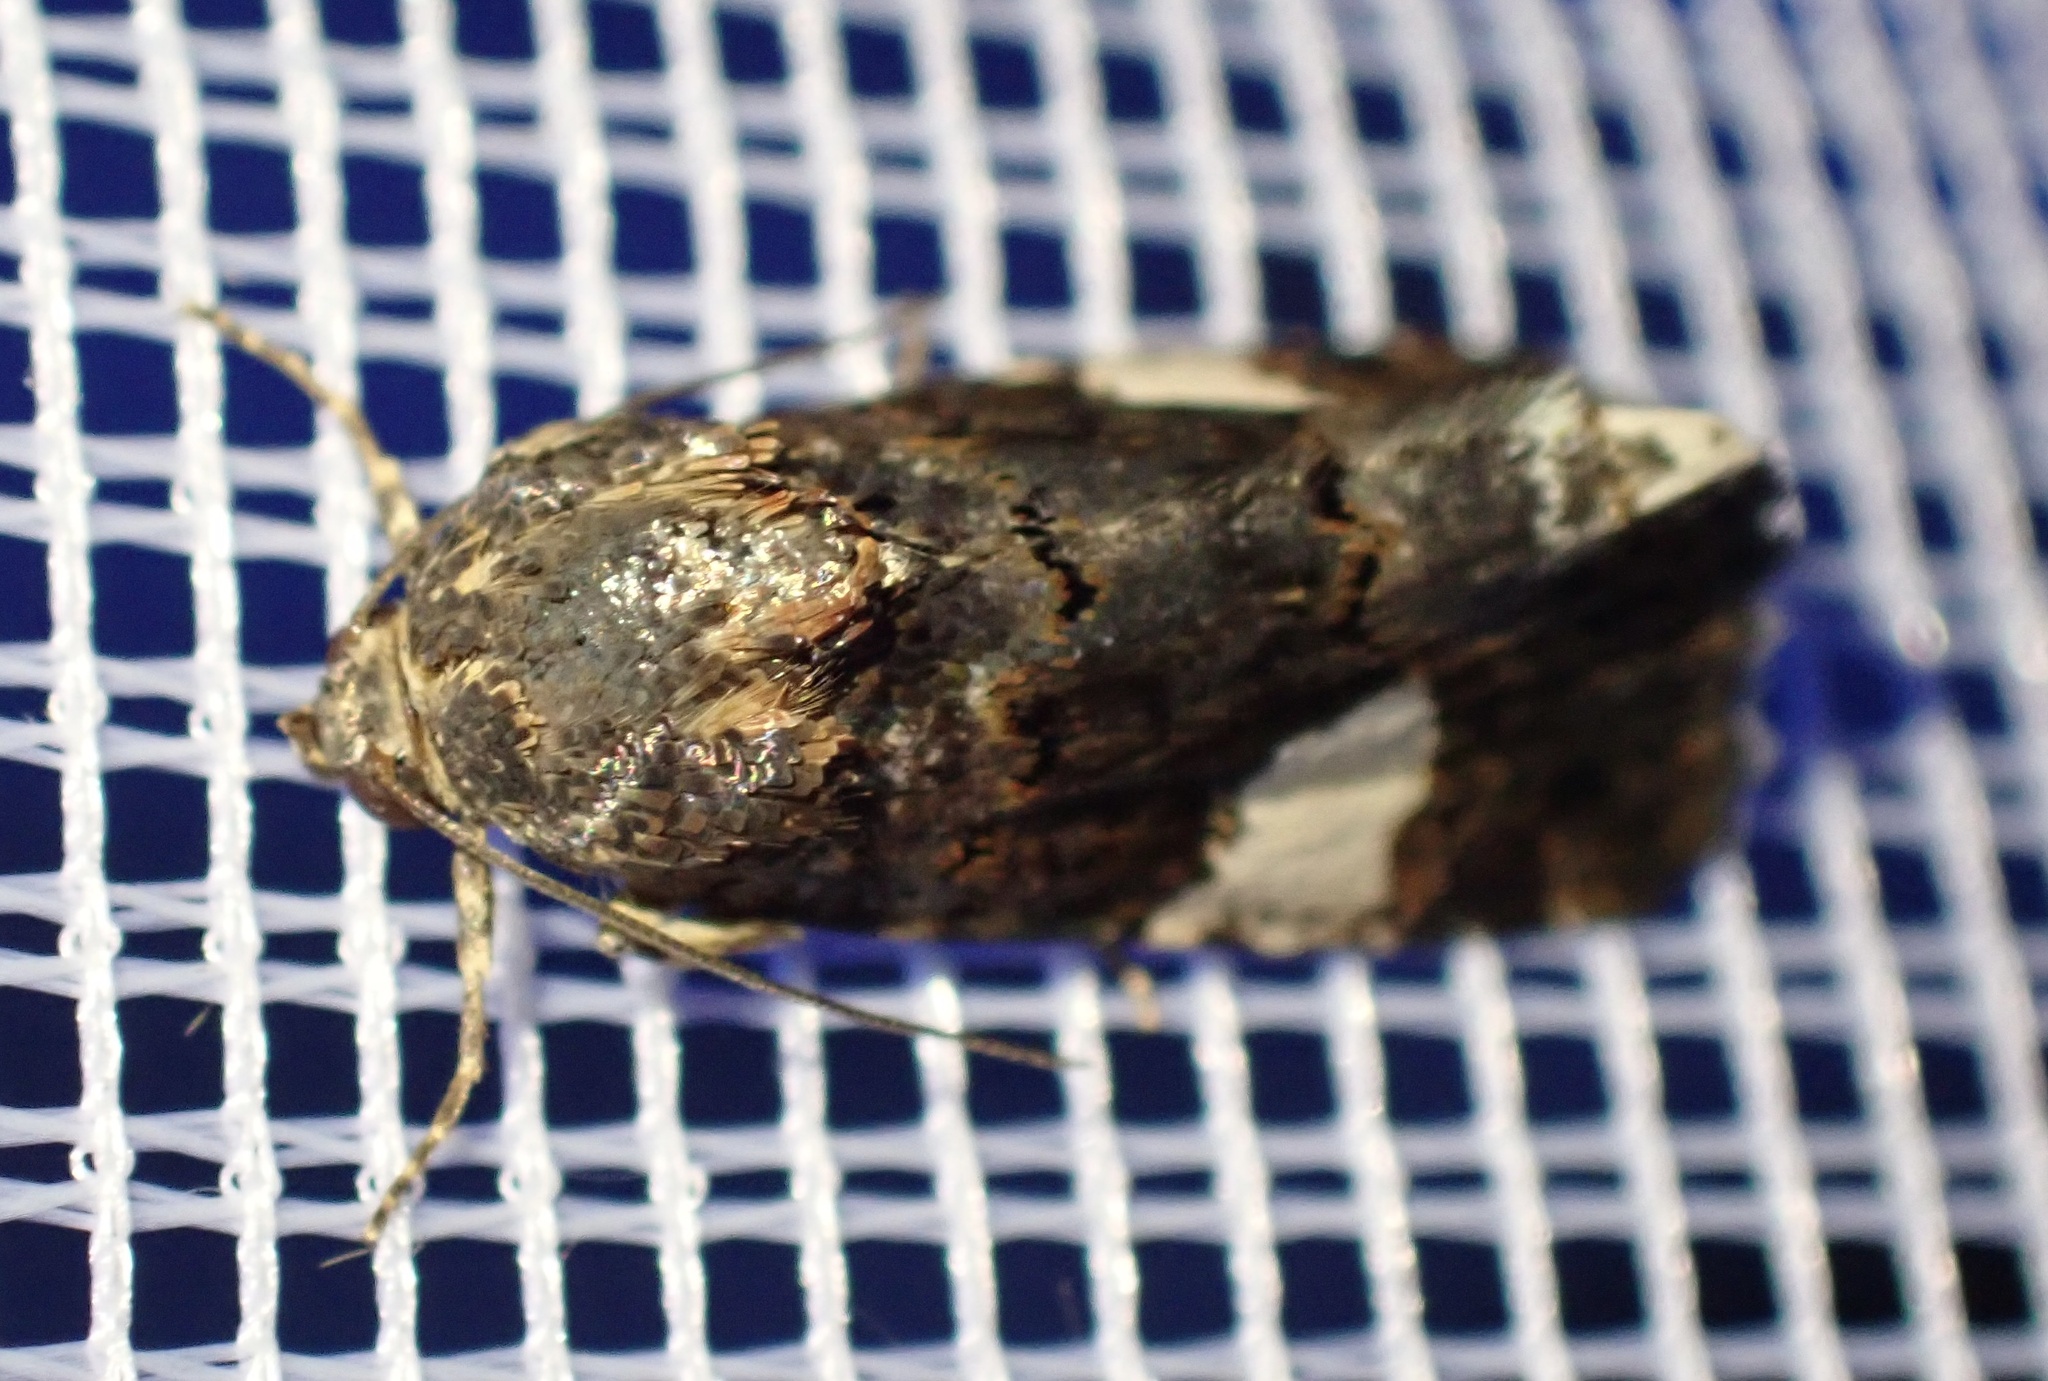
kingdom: Animalia
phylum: Arthropoda
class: Insecta
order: Lepidoptera
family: Erebidae
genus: Tyta
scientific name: Tyta luctuosa
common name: Four-spotted
